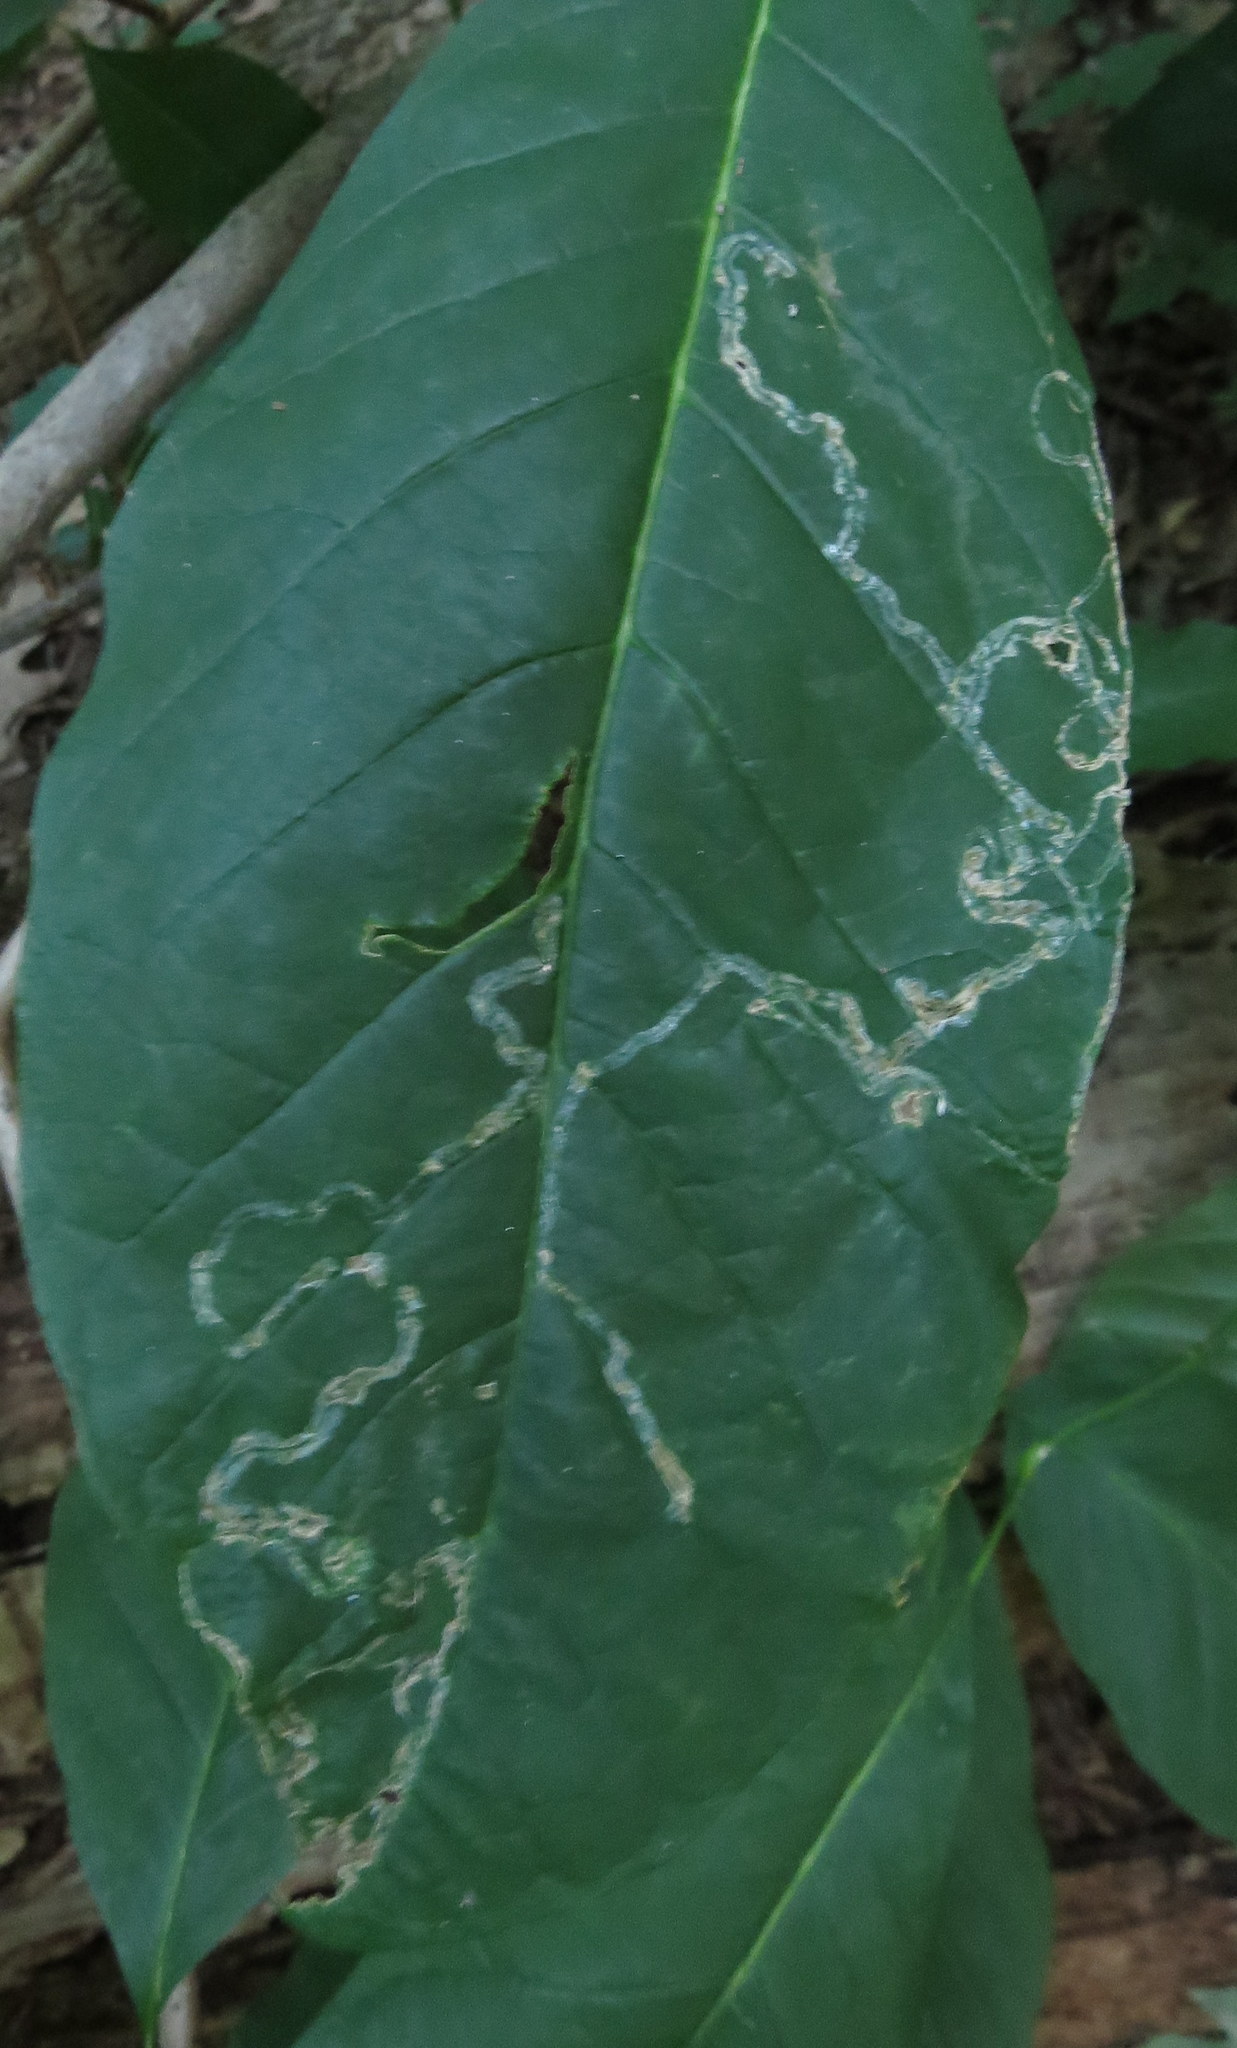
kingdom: Animalia
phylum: Arthropoda
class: Insecta
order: Lepidoptera
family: Gracillariidae
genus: Phyllocnistis
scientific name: Phyllocnistis liriodendronella
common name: Tulip tree leaf miner
